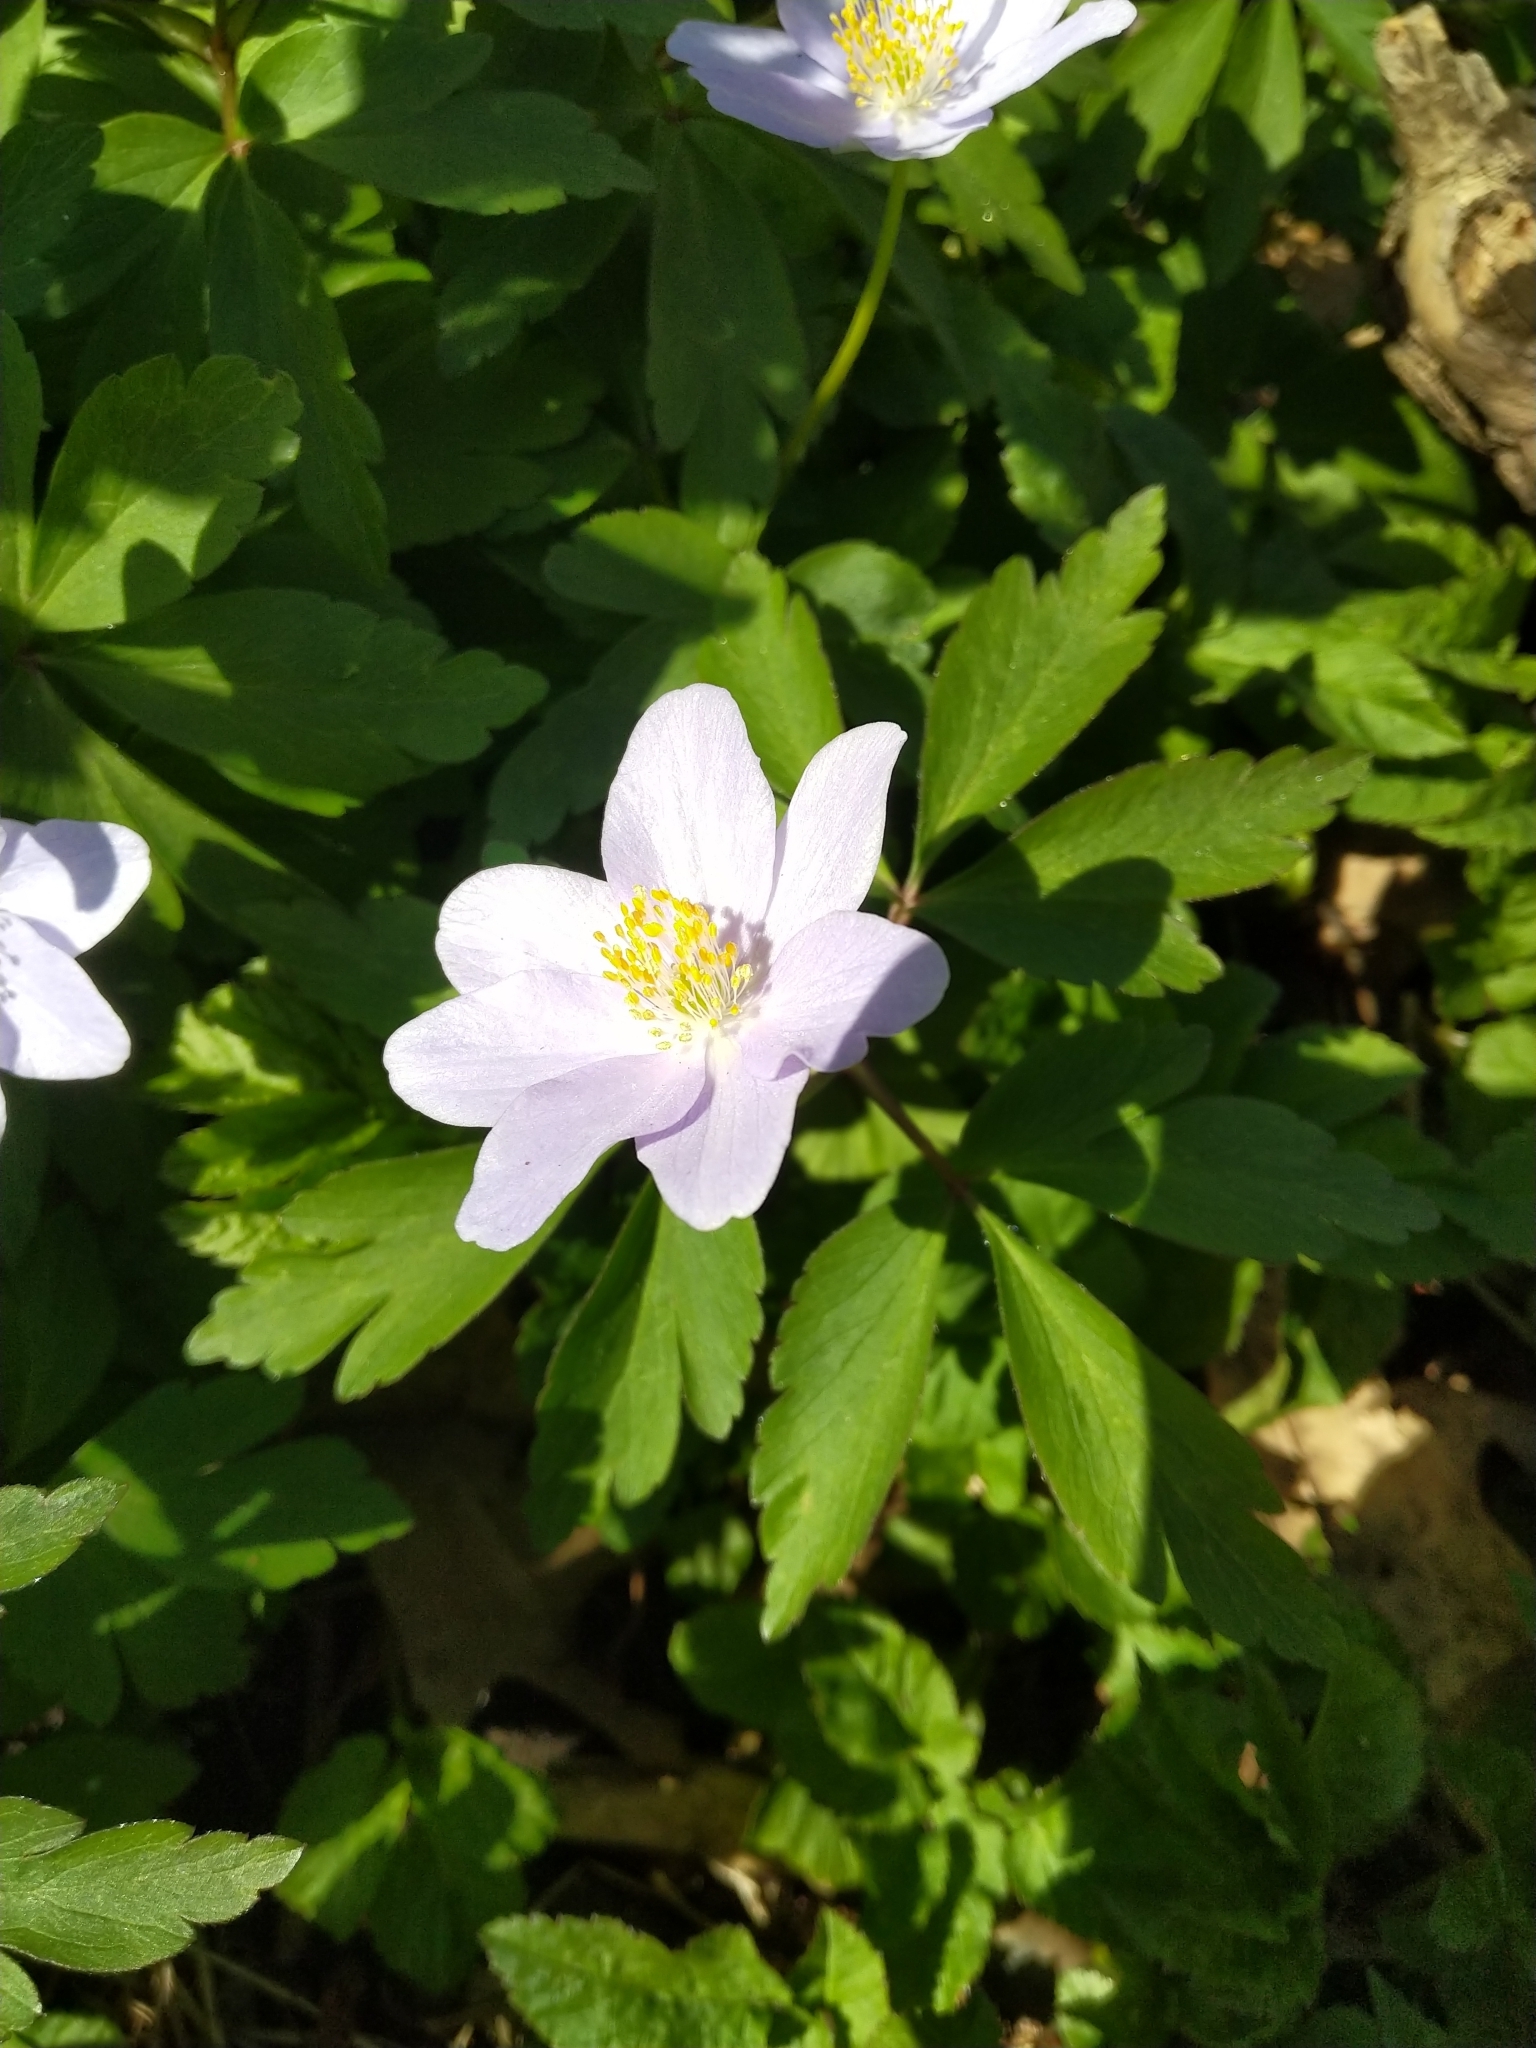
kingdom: Plantae
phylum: Tracheophyta
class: Magnoliopsida
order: Ranunculales
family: Ranunculaceae
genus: Anemone
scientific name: Anemone nemorosa
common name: Wood anemone
